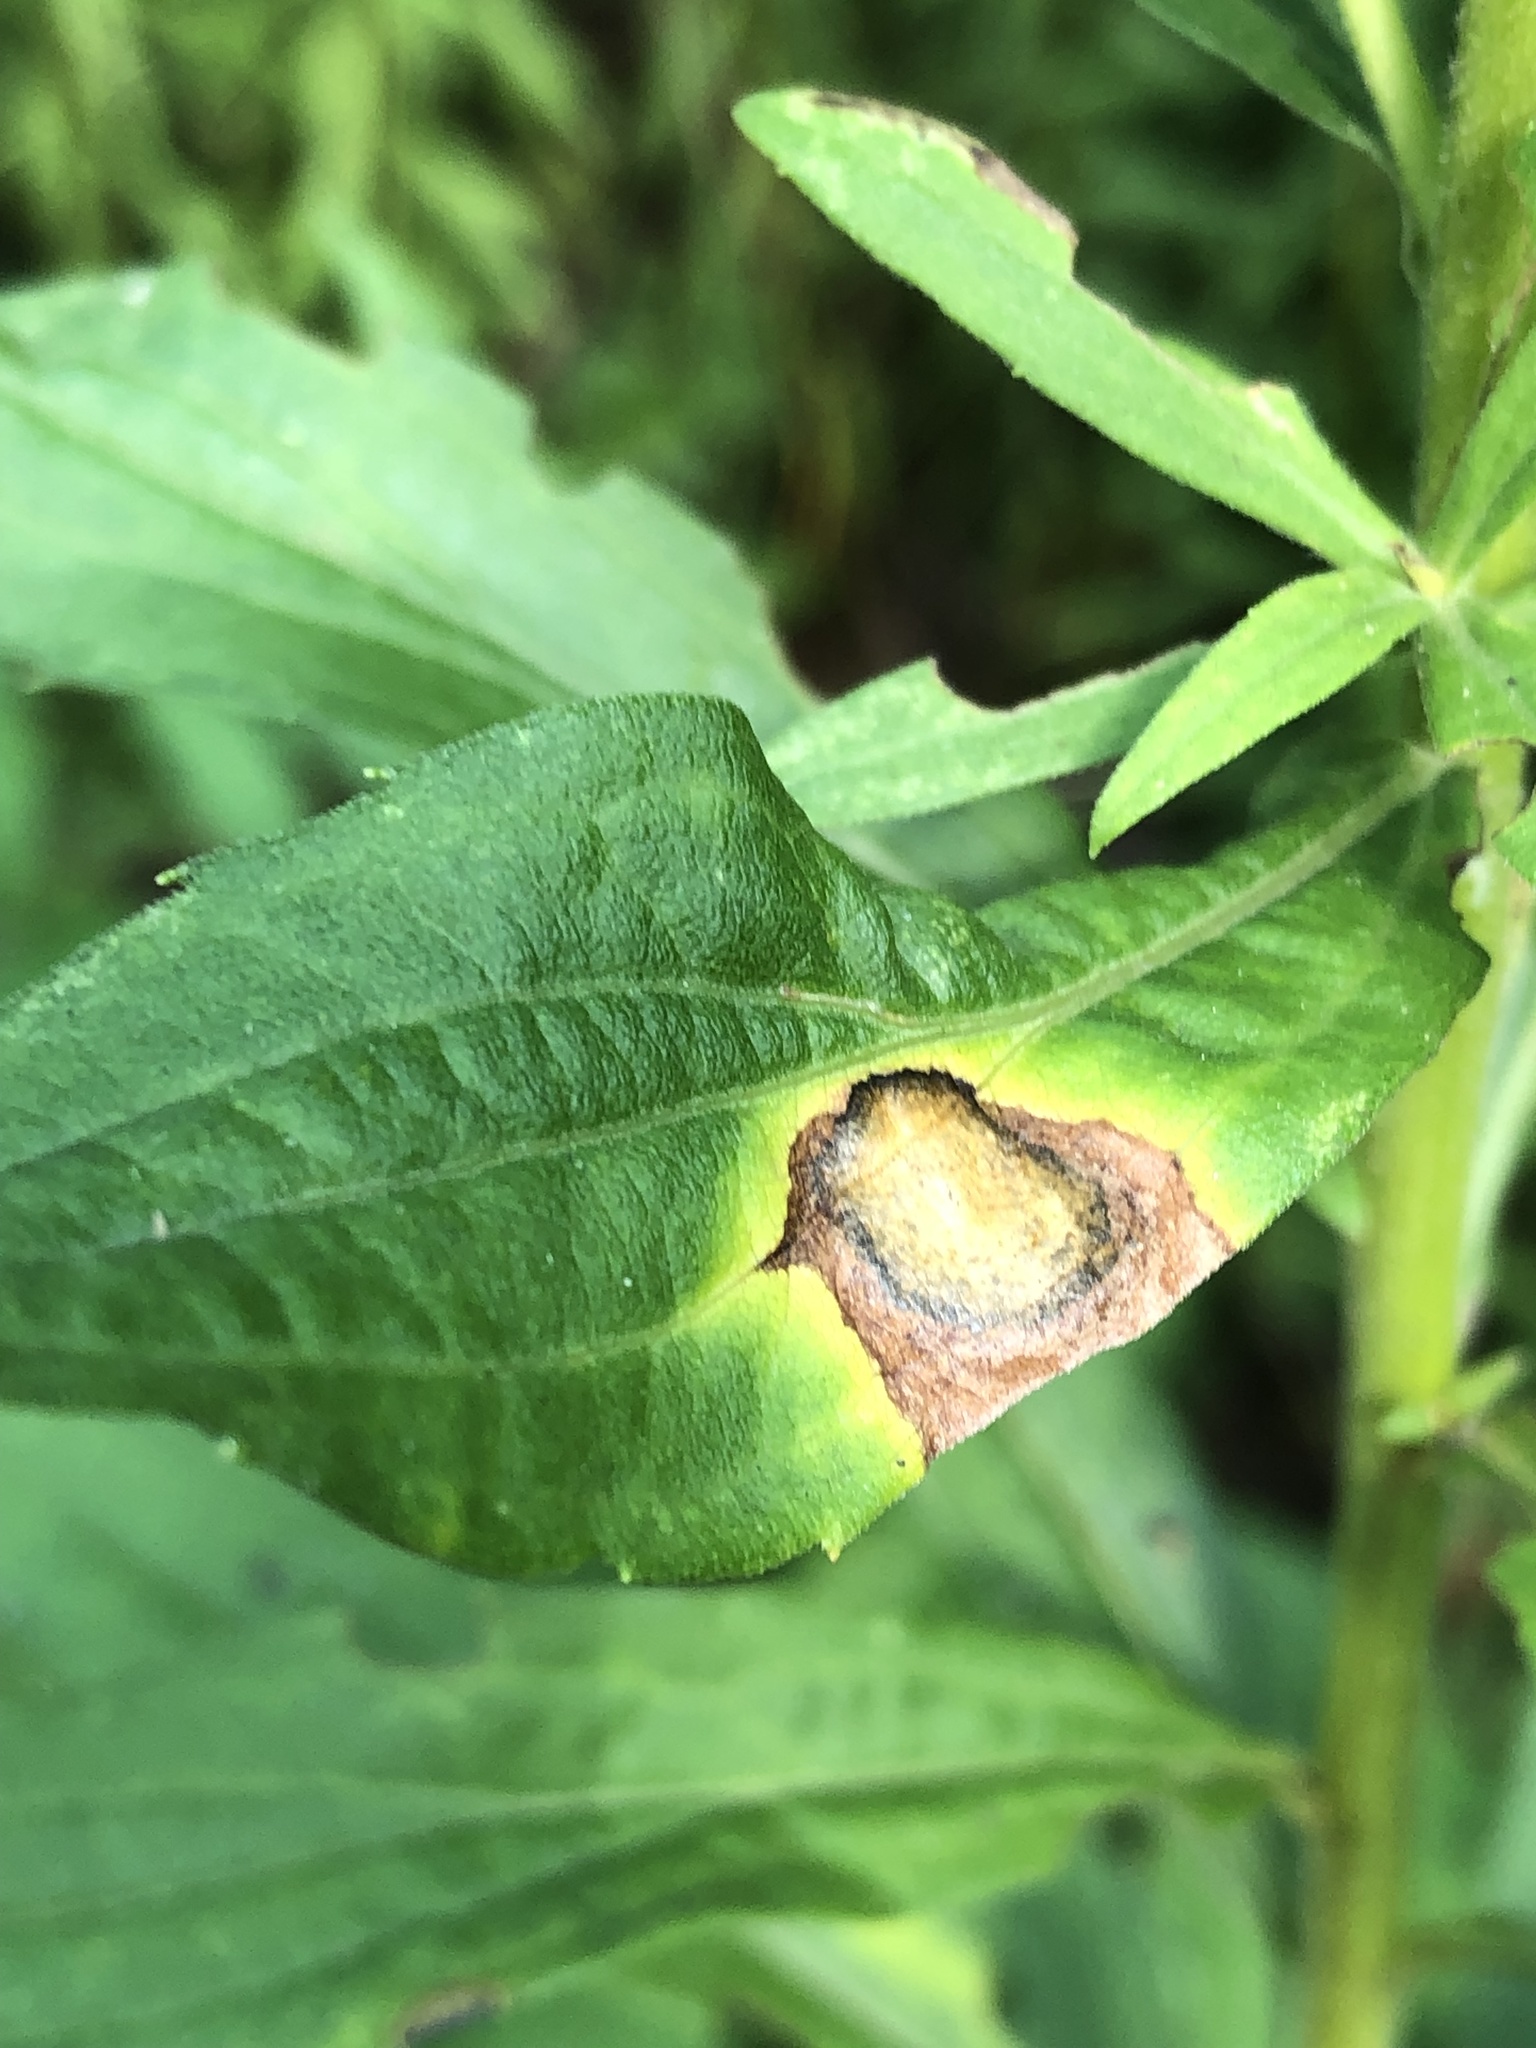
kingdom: Animalia
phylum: Arthropoda
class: Insecta
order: Diptera
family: Cecidomyiidae
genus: Asteromyia
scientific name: Asteromyia carbonifera
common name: Carbonifera goldenrod gall midge
